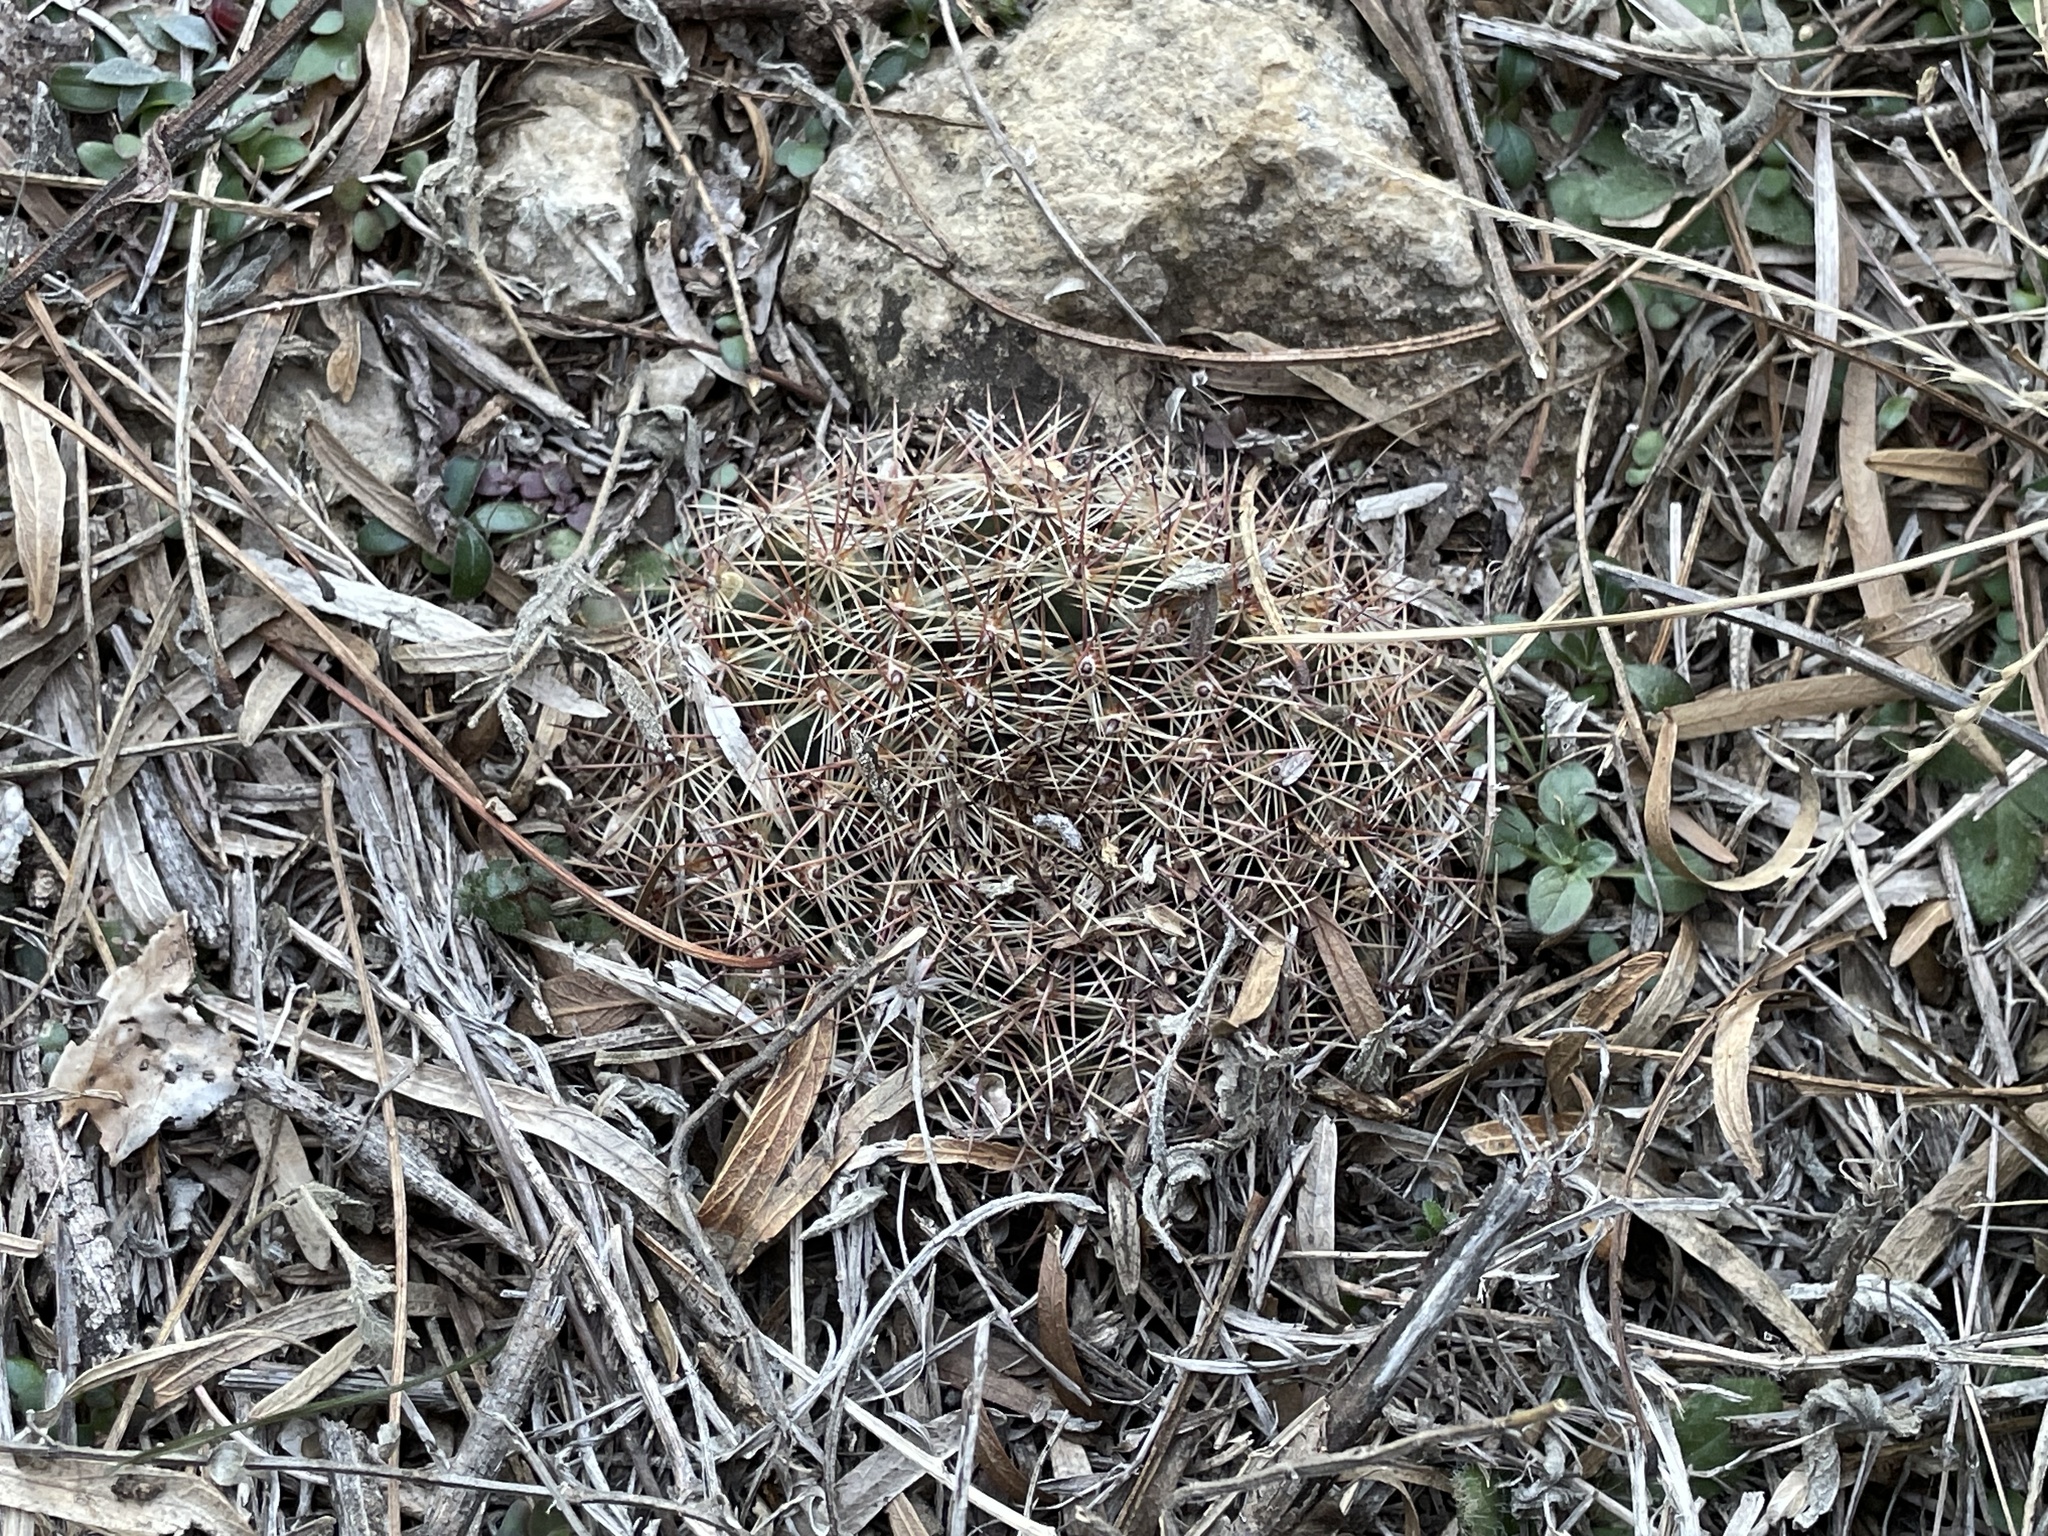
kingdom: Plantae
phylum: Tracheophyta
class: Magnoliopsida
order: Caryophyllales
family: Cactaceae
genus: Mammillaria
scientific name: Mammillaria heyderi
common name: Little nipple cactus
